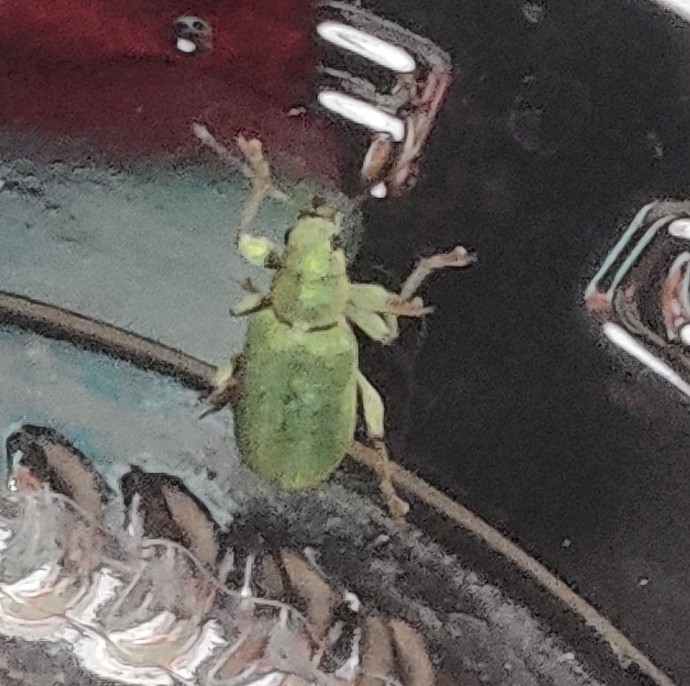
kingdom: Animalia
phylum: Arthropoda
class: Insecta
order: Coleoptera
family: Curculionidae
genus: Pachyrhinus
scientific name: Pachyrhinus lethierryi
